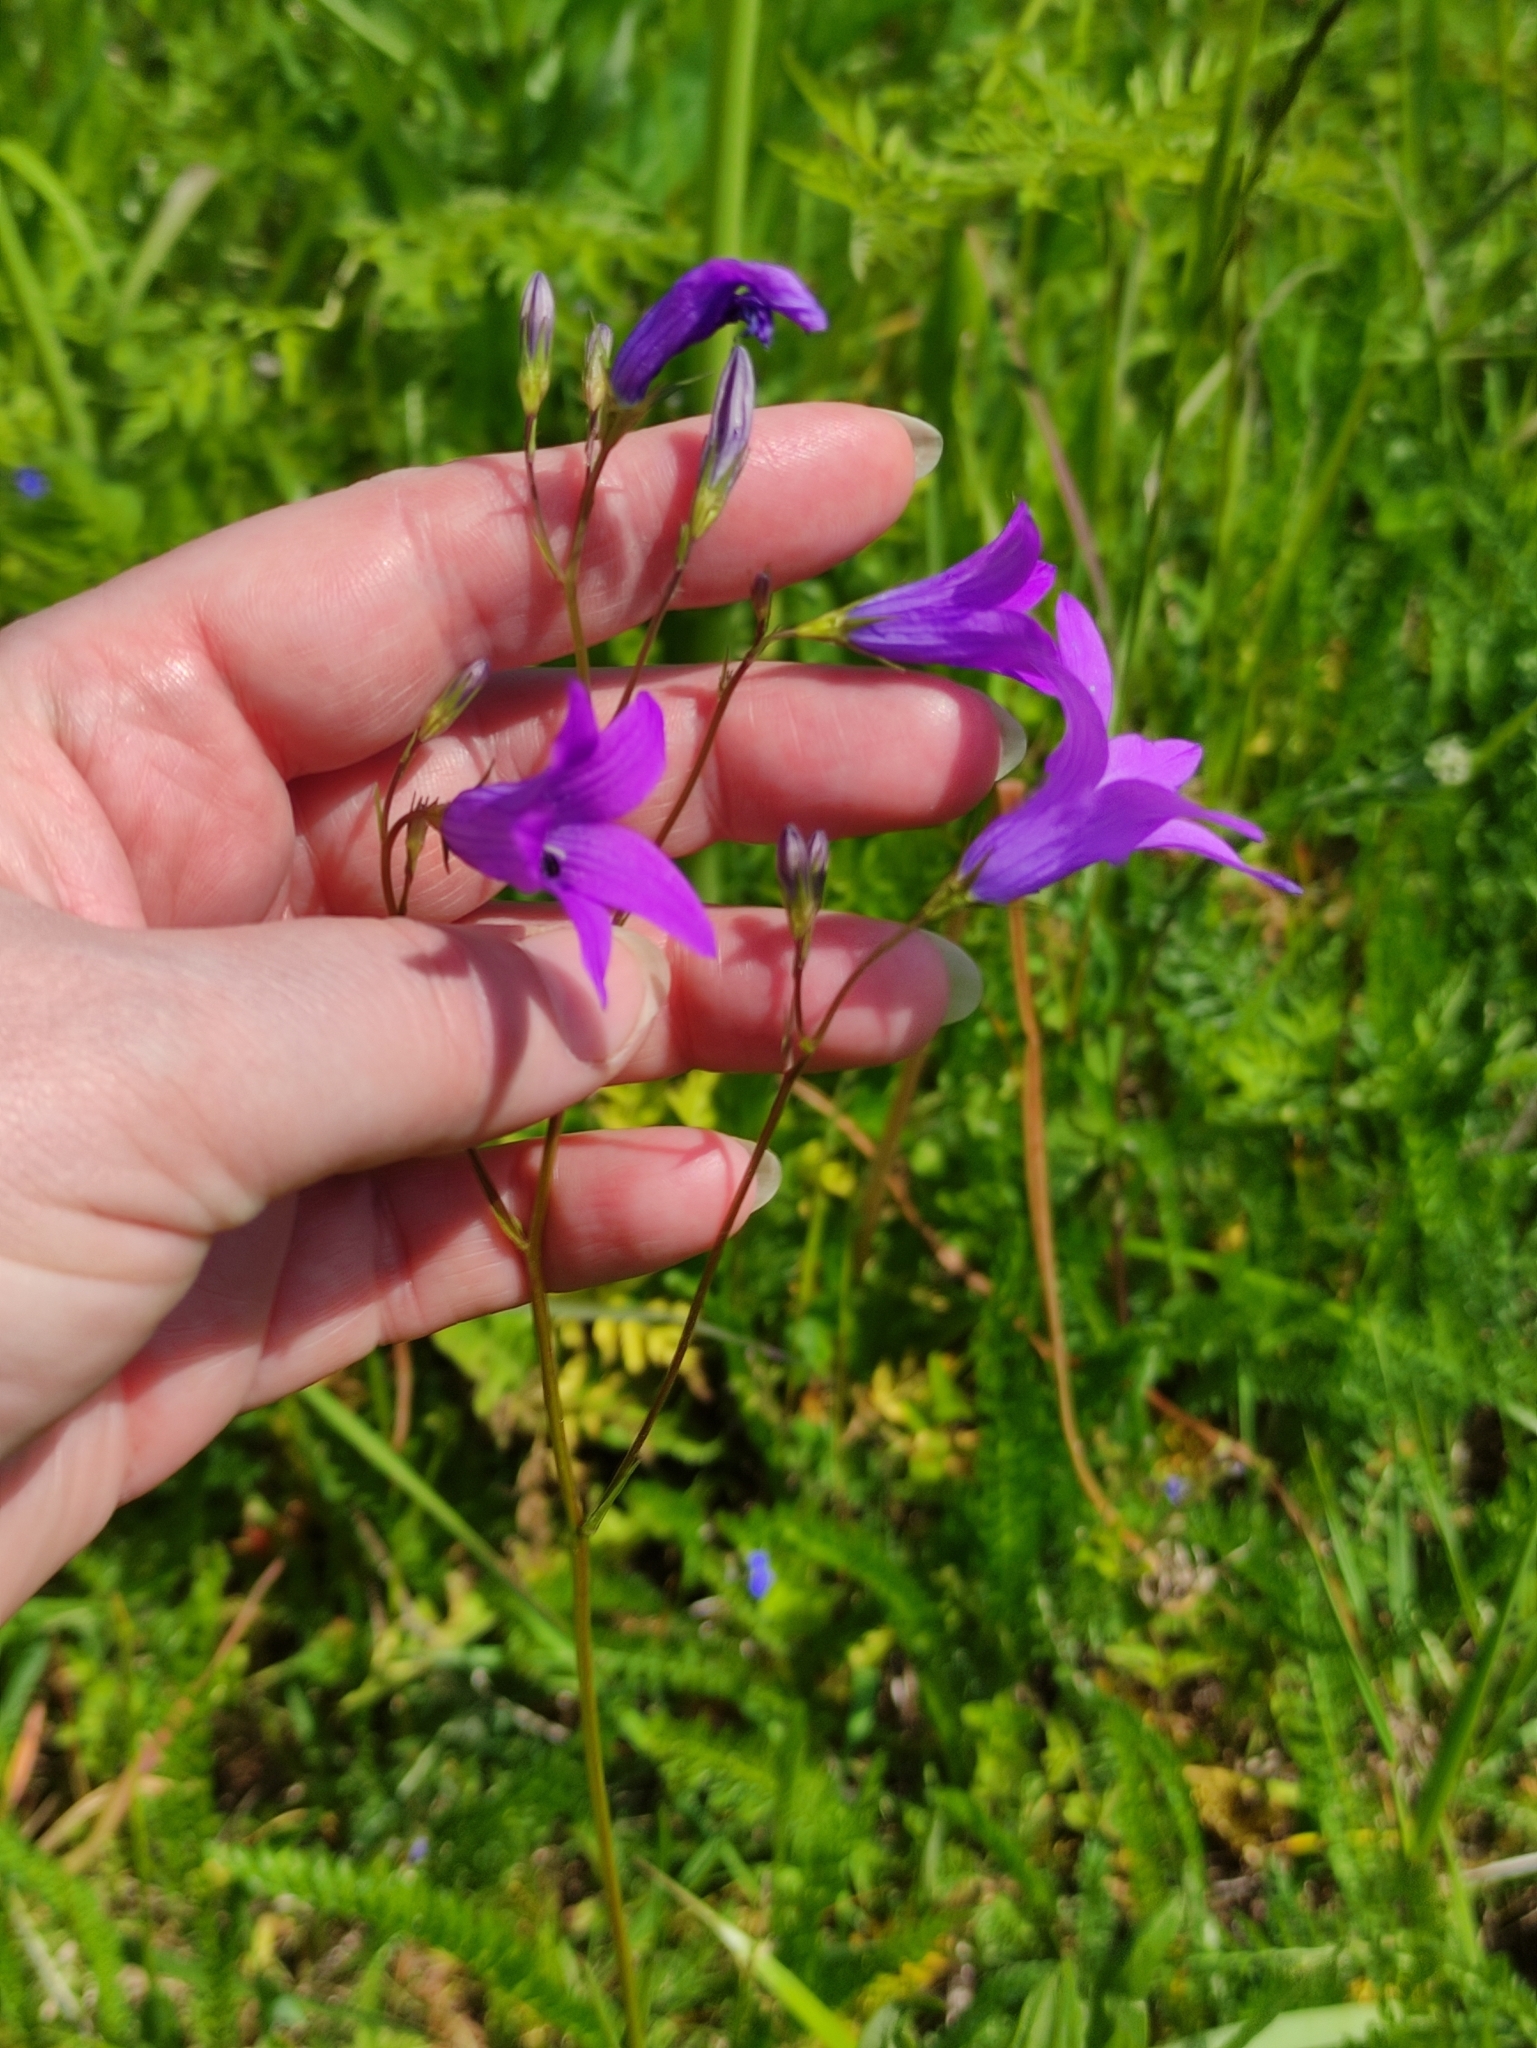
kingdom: Plantae
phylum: Tracheophyta
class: Magnoliopsida
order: Asterales
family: Campanulaceae
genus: Campanula
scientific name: Campanula patula
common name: Spreading bellflower
